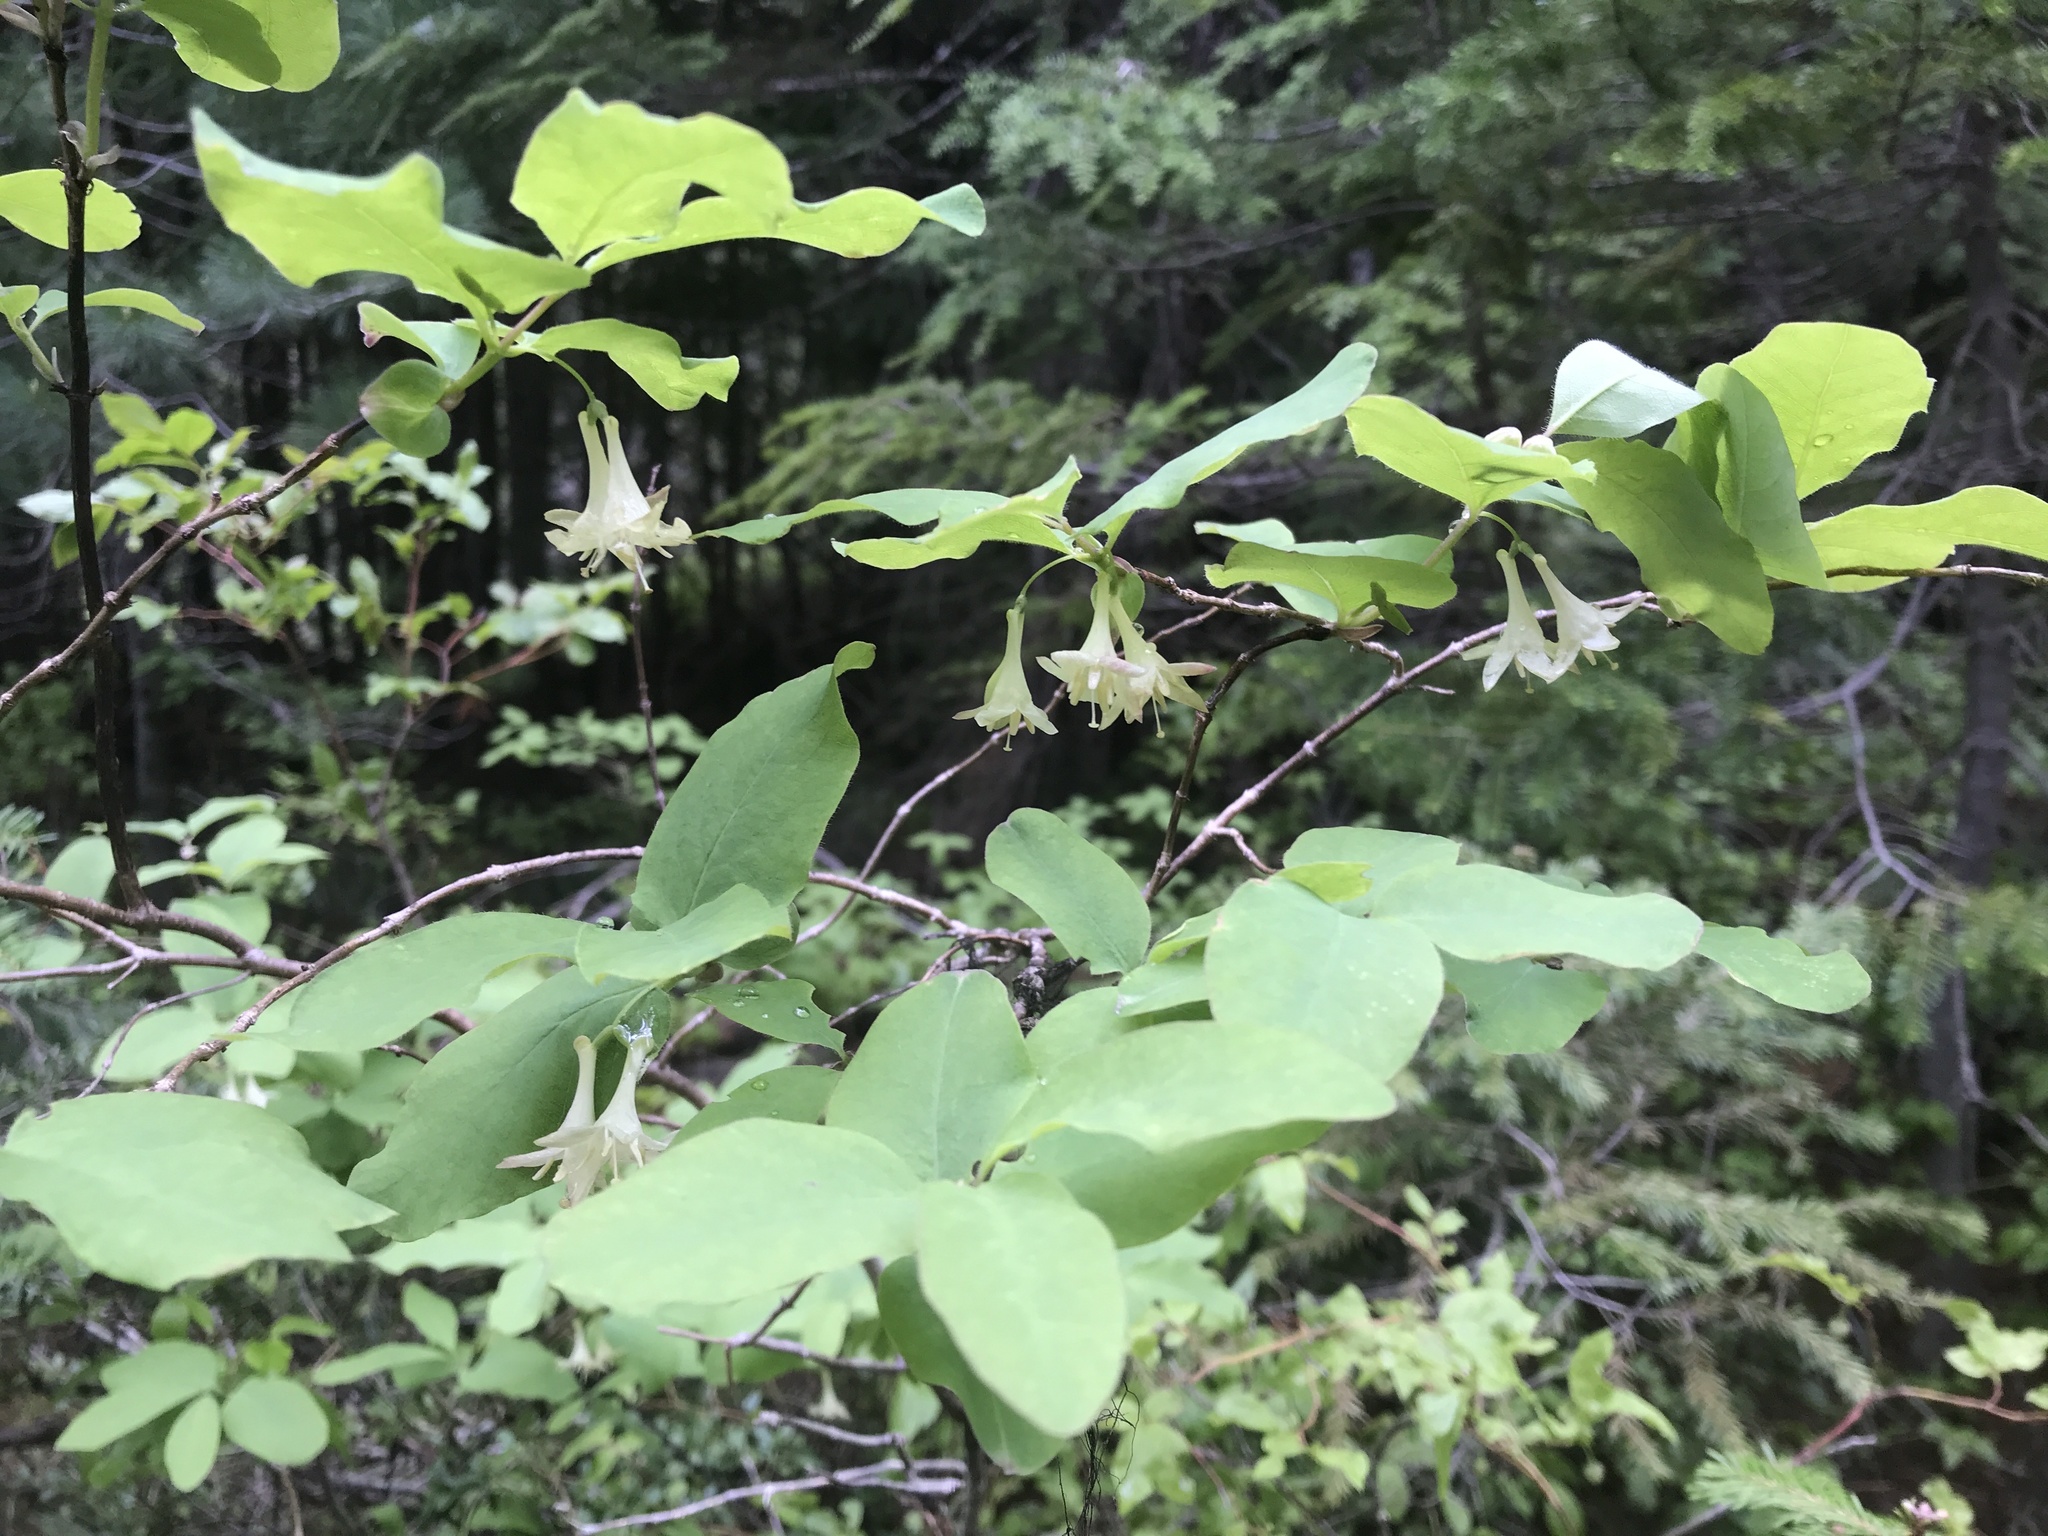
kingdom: Plantae
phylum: Tracheophyta
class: Magnoliopsida
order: Dipsacales
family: Caprifoliaceae
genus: Lonicera
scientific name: Lonicera utahensis
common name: Utah honeysuckle
